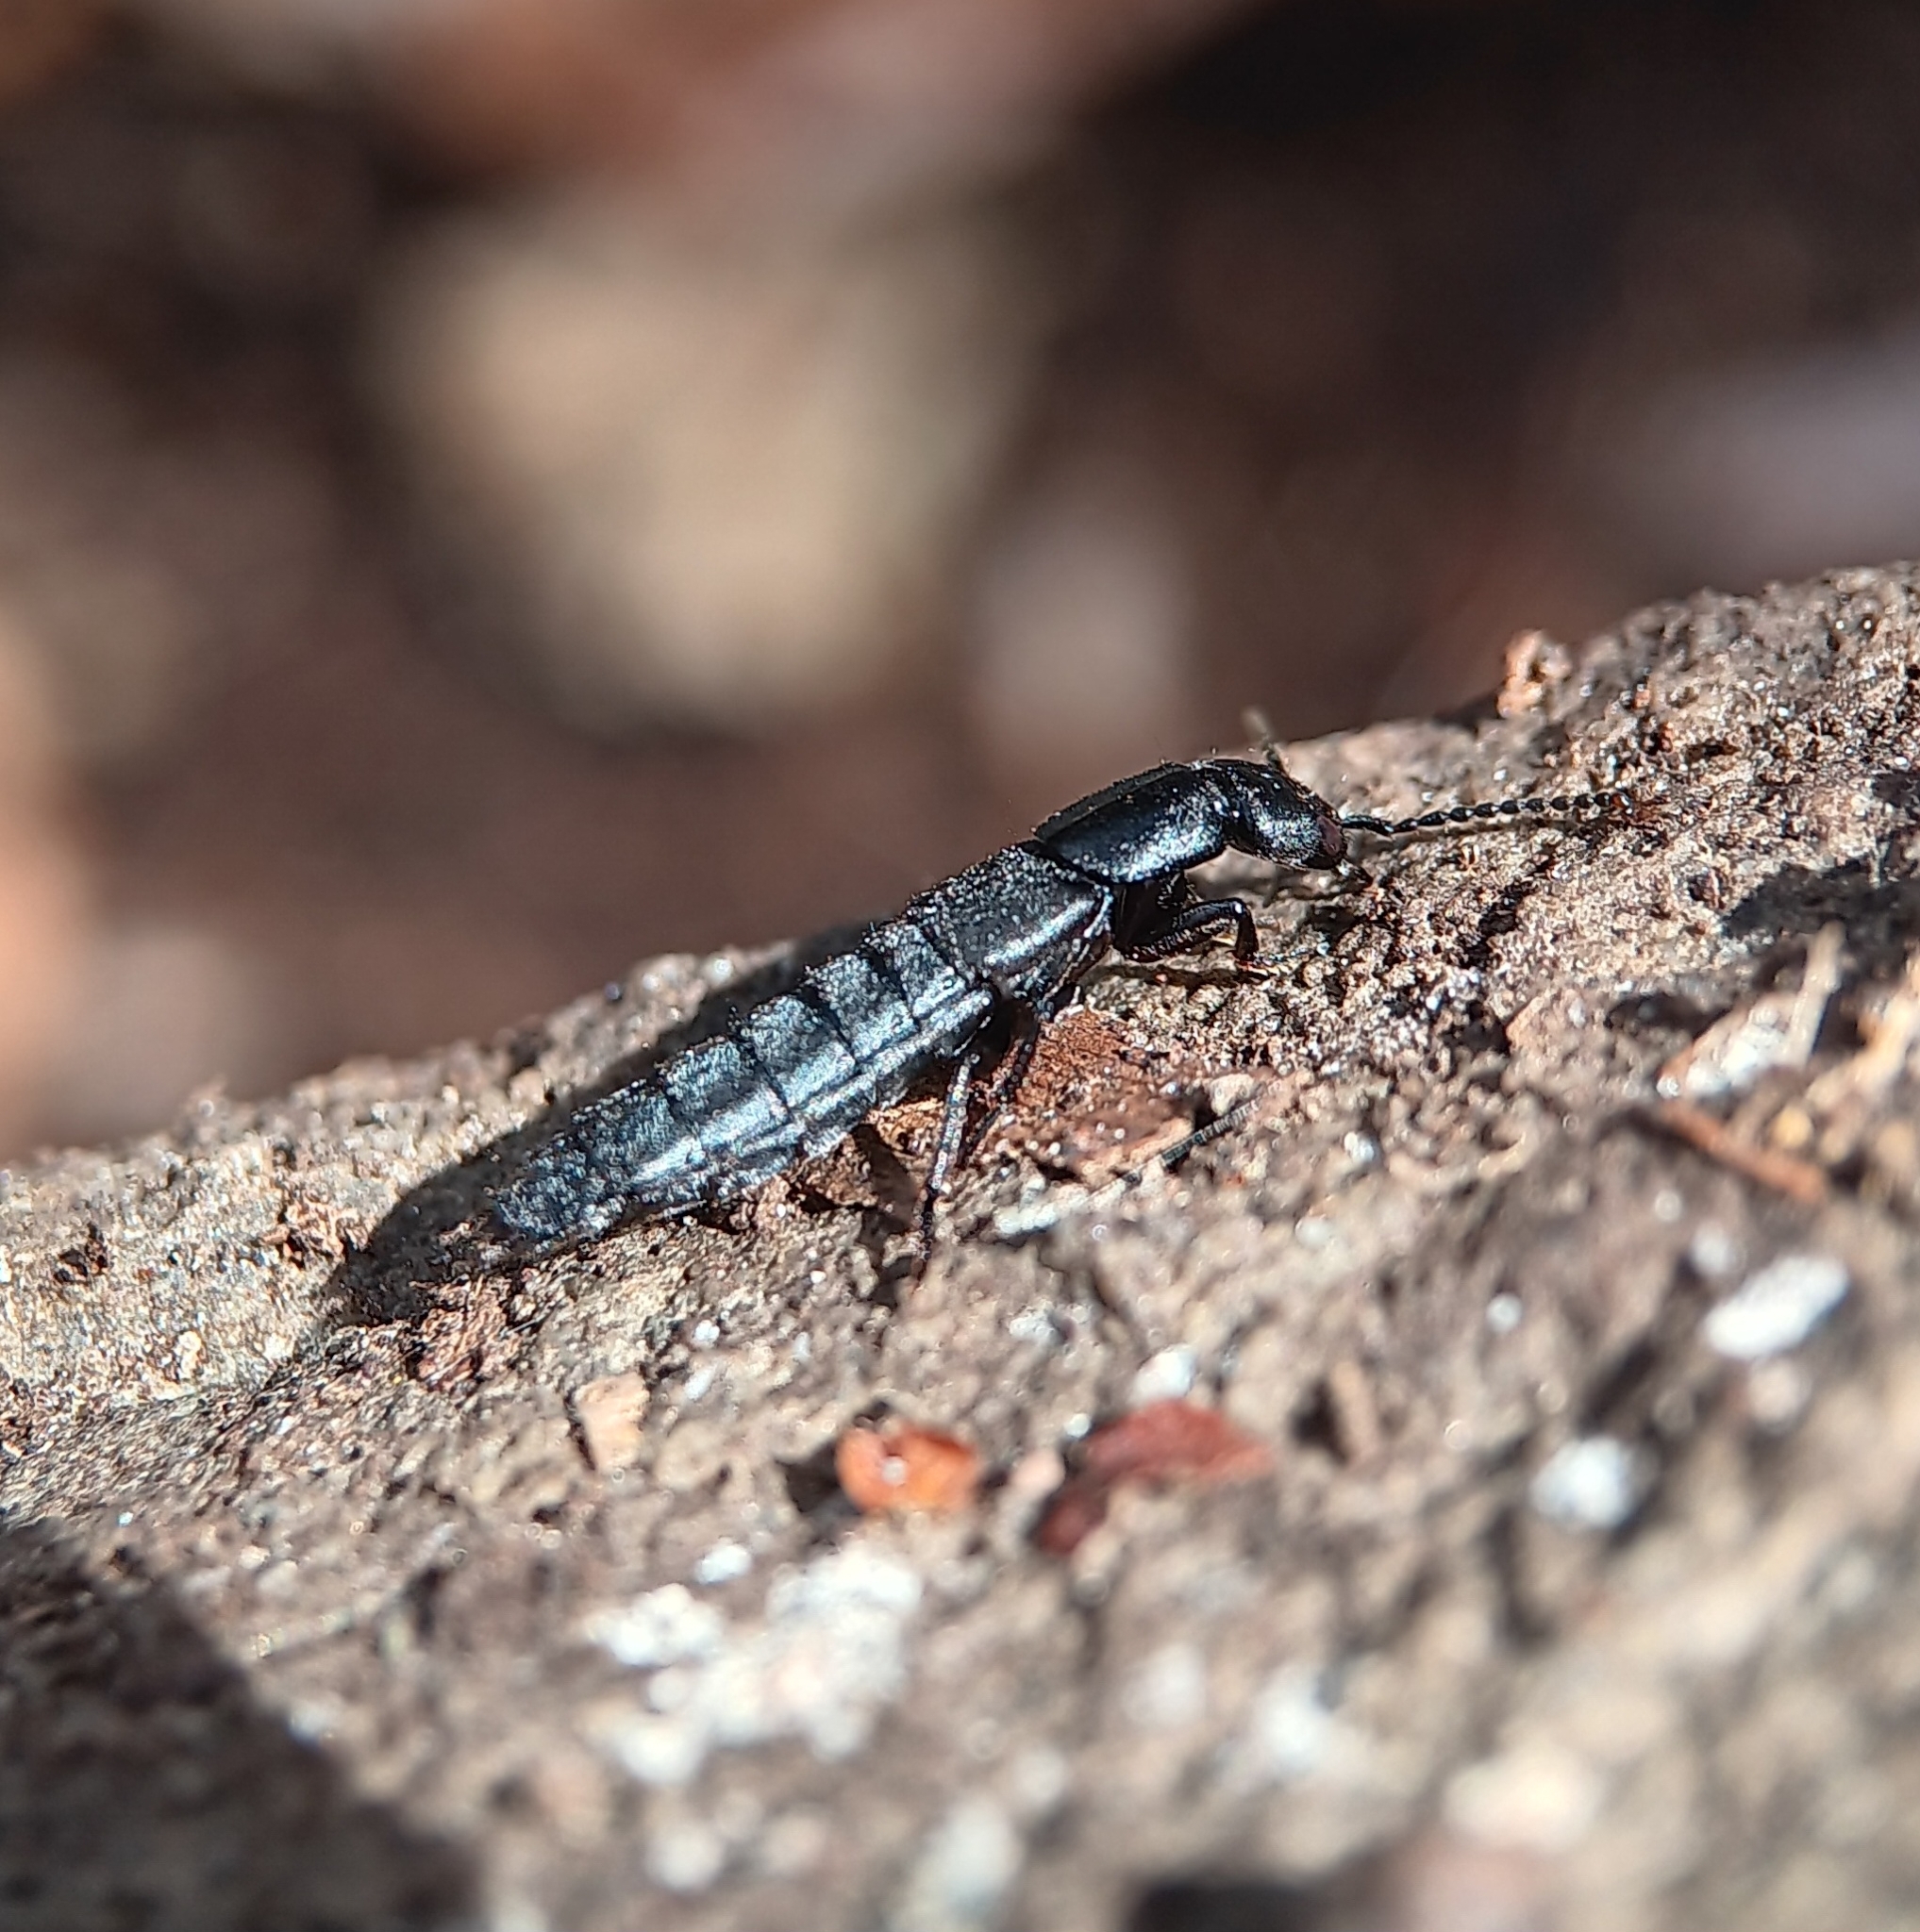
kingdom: Animalia
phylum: Arthropoda
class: Insecta
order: Coleoptera
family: Staphylinidae
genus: Ocypus
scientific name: Ocypus nitens
